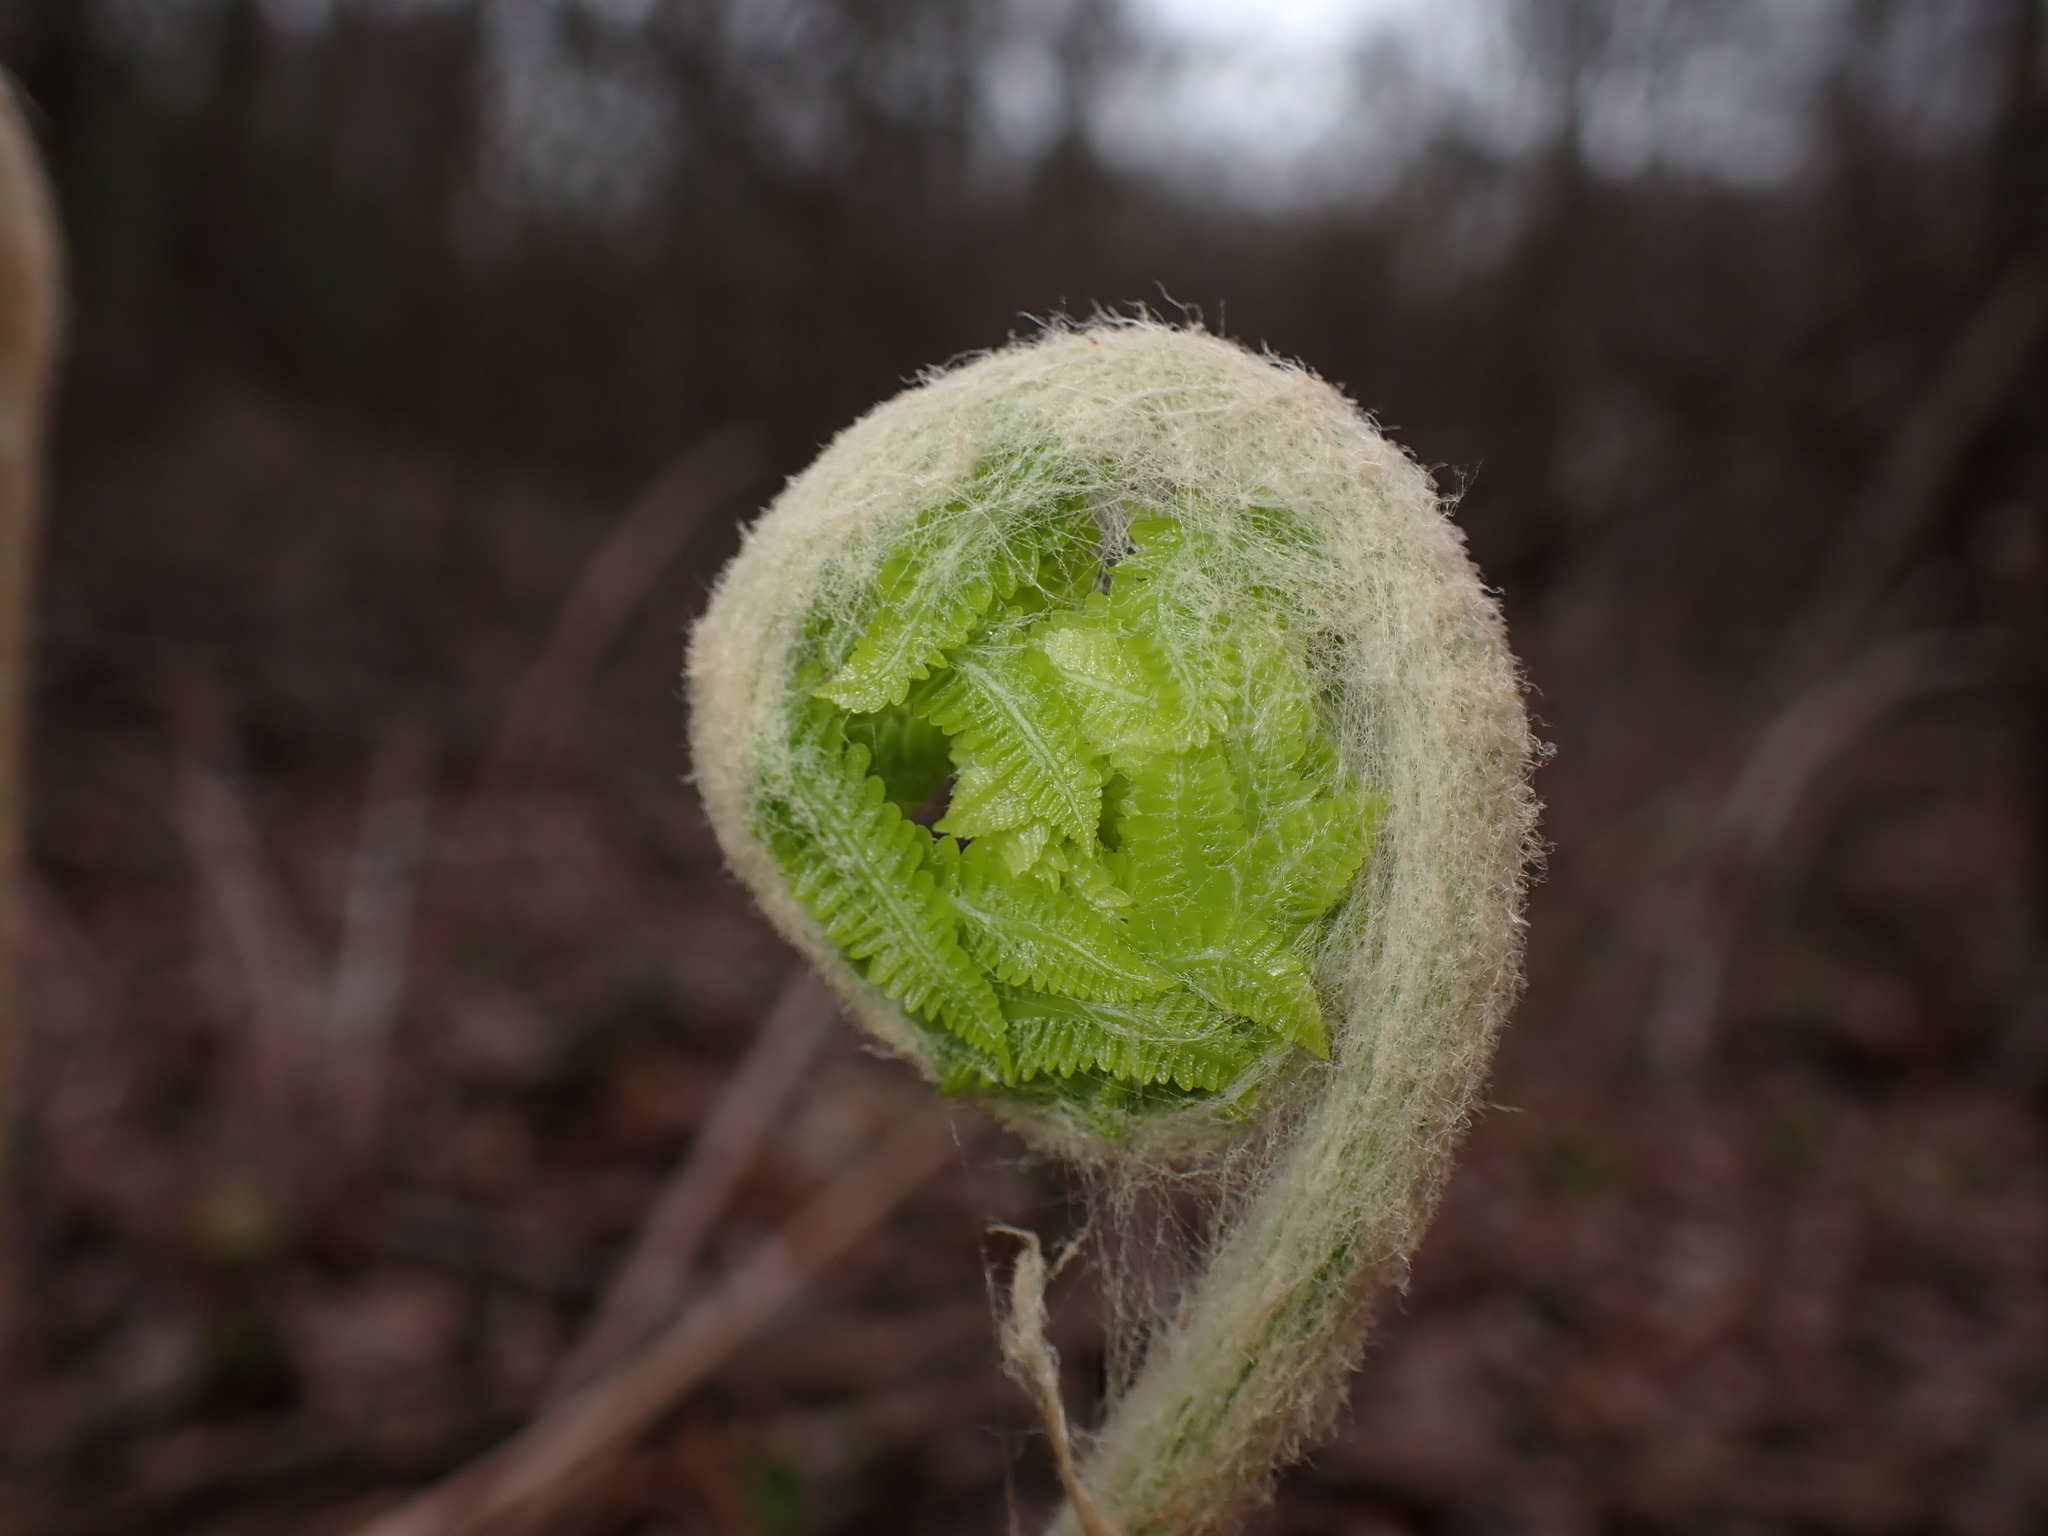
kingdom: Plantae
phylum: Tracheophyta
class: Polypodiopsida
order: Osmundales
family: Osmundaceae
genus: Osmundastrum
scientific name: Osmundastrum cinnamomeum
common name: Cinnamon fern
